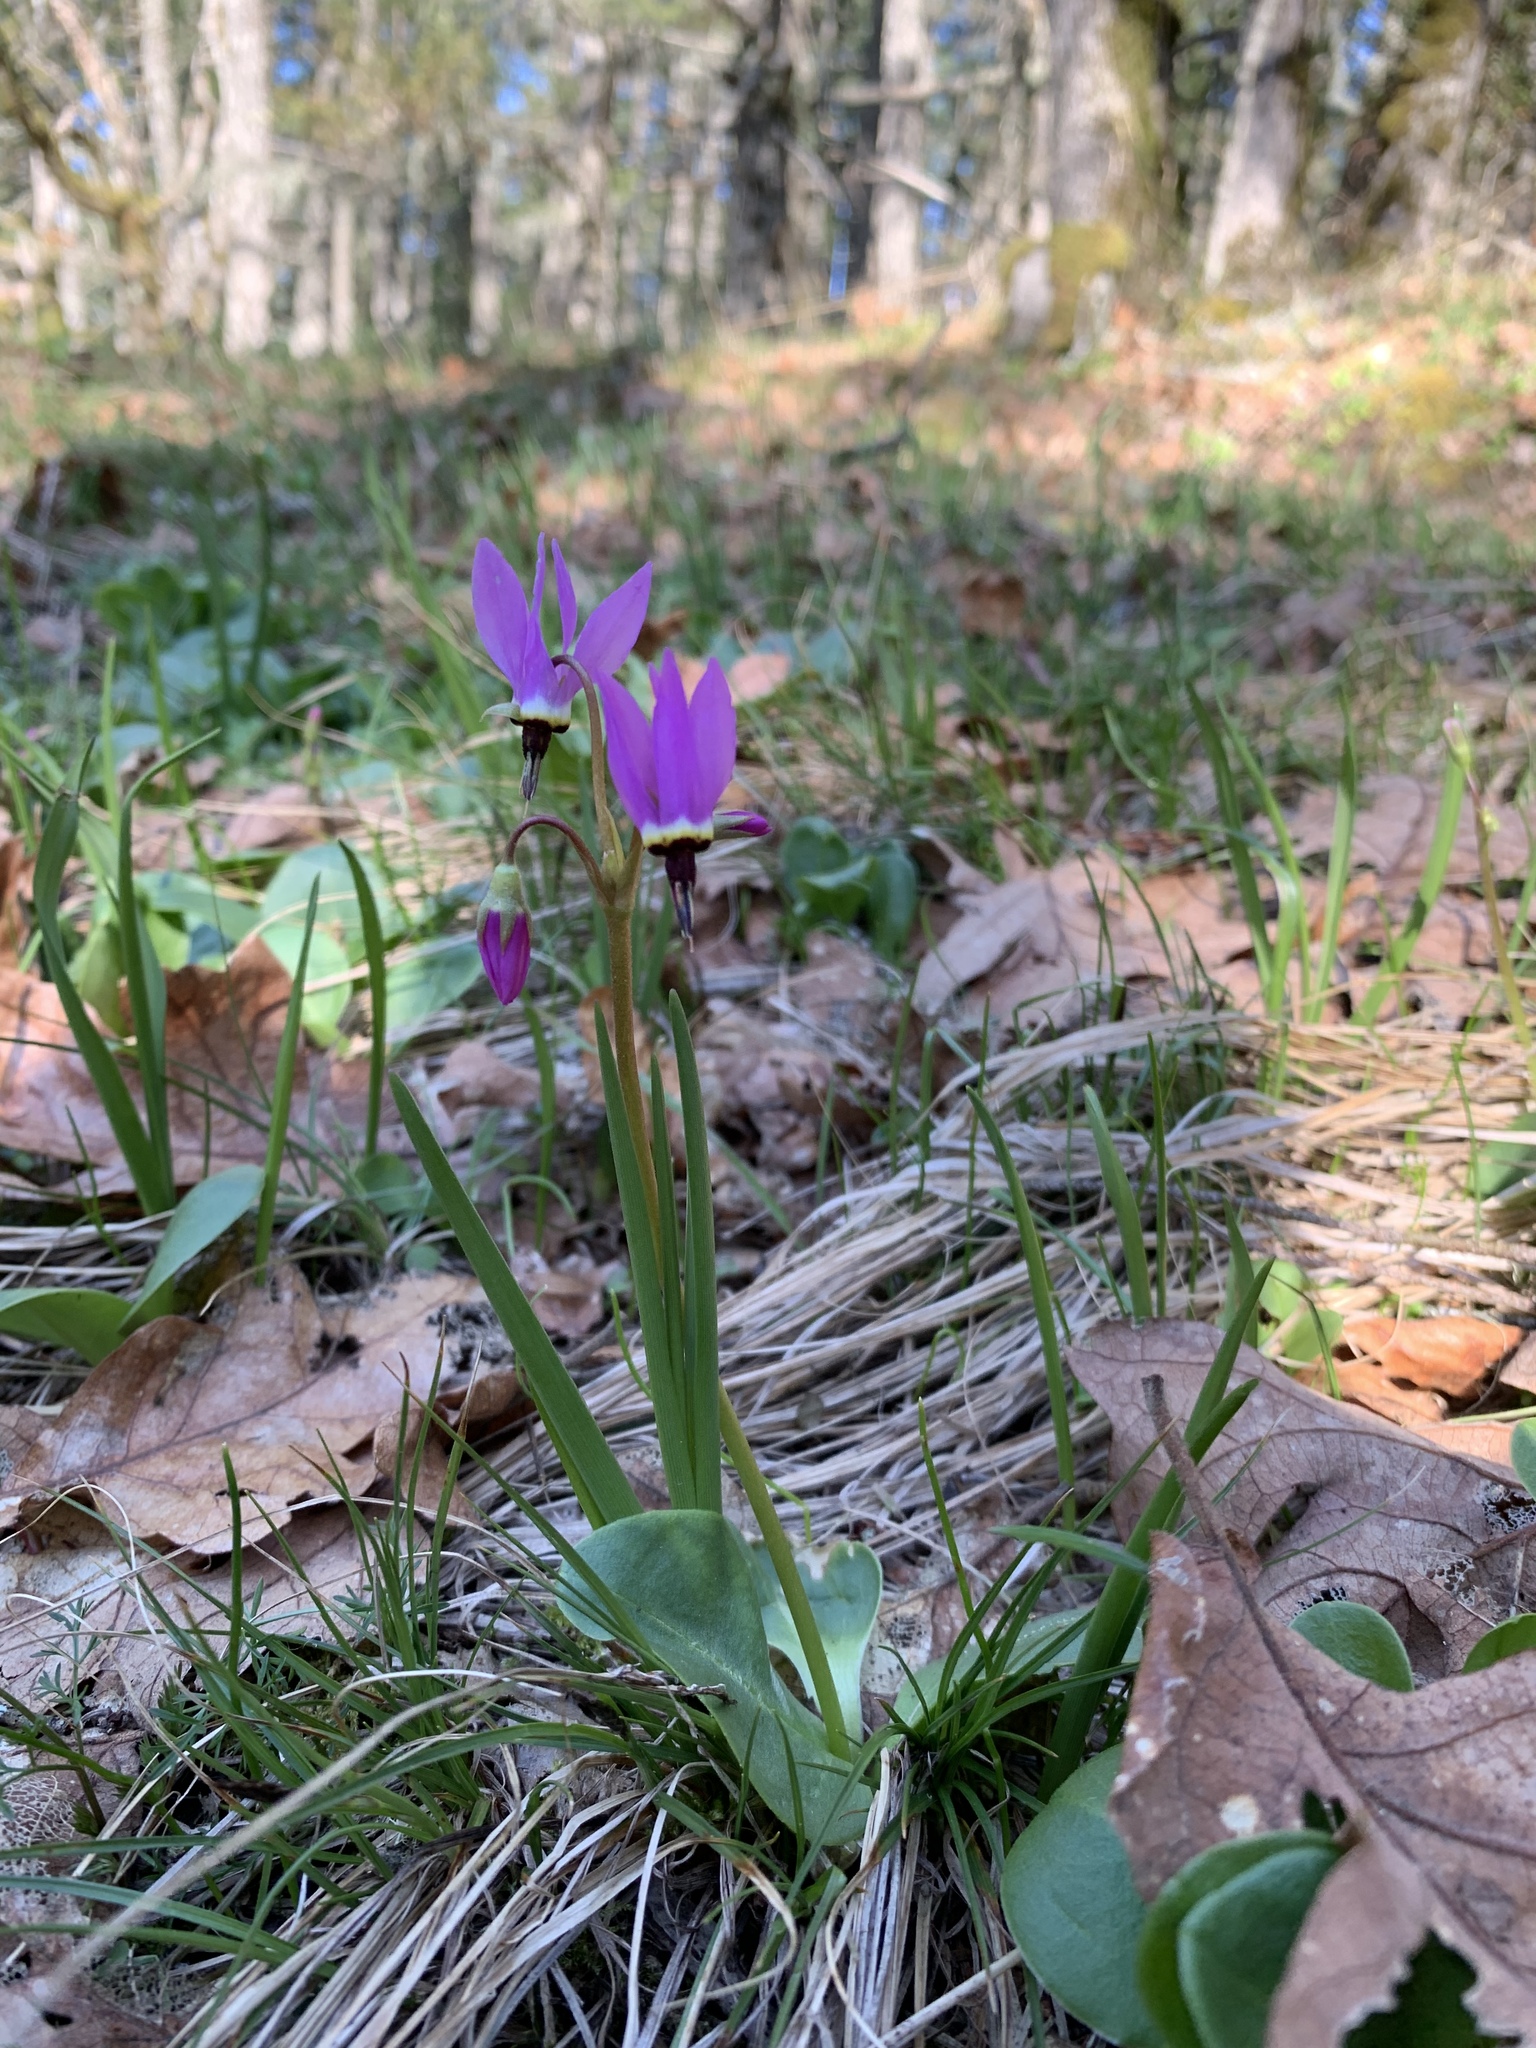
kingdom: Plantae
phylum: Tracheophyta
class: Magnoliopsida
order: Ericales
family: Primulaceae
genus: Dodecatheon
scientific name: Dodecatheon hendersonii
